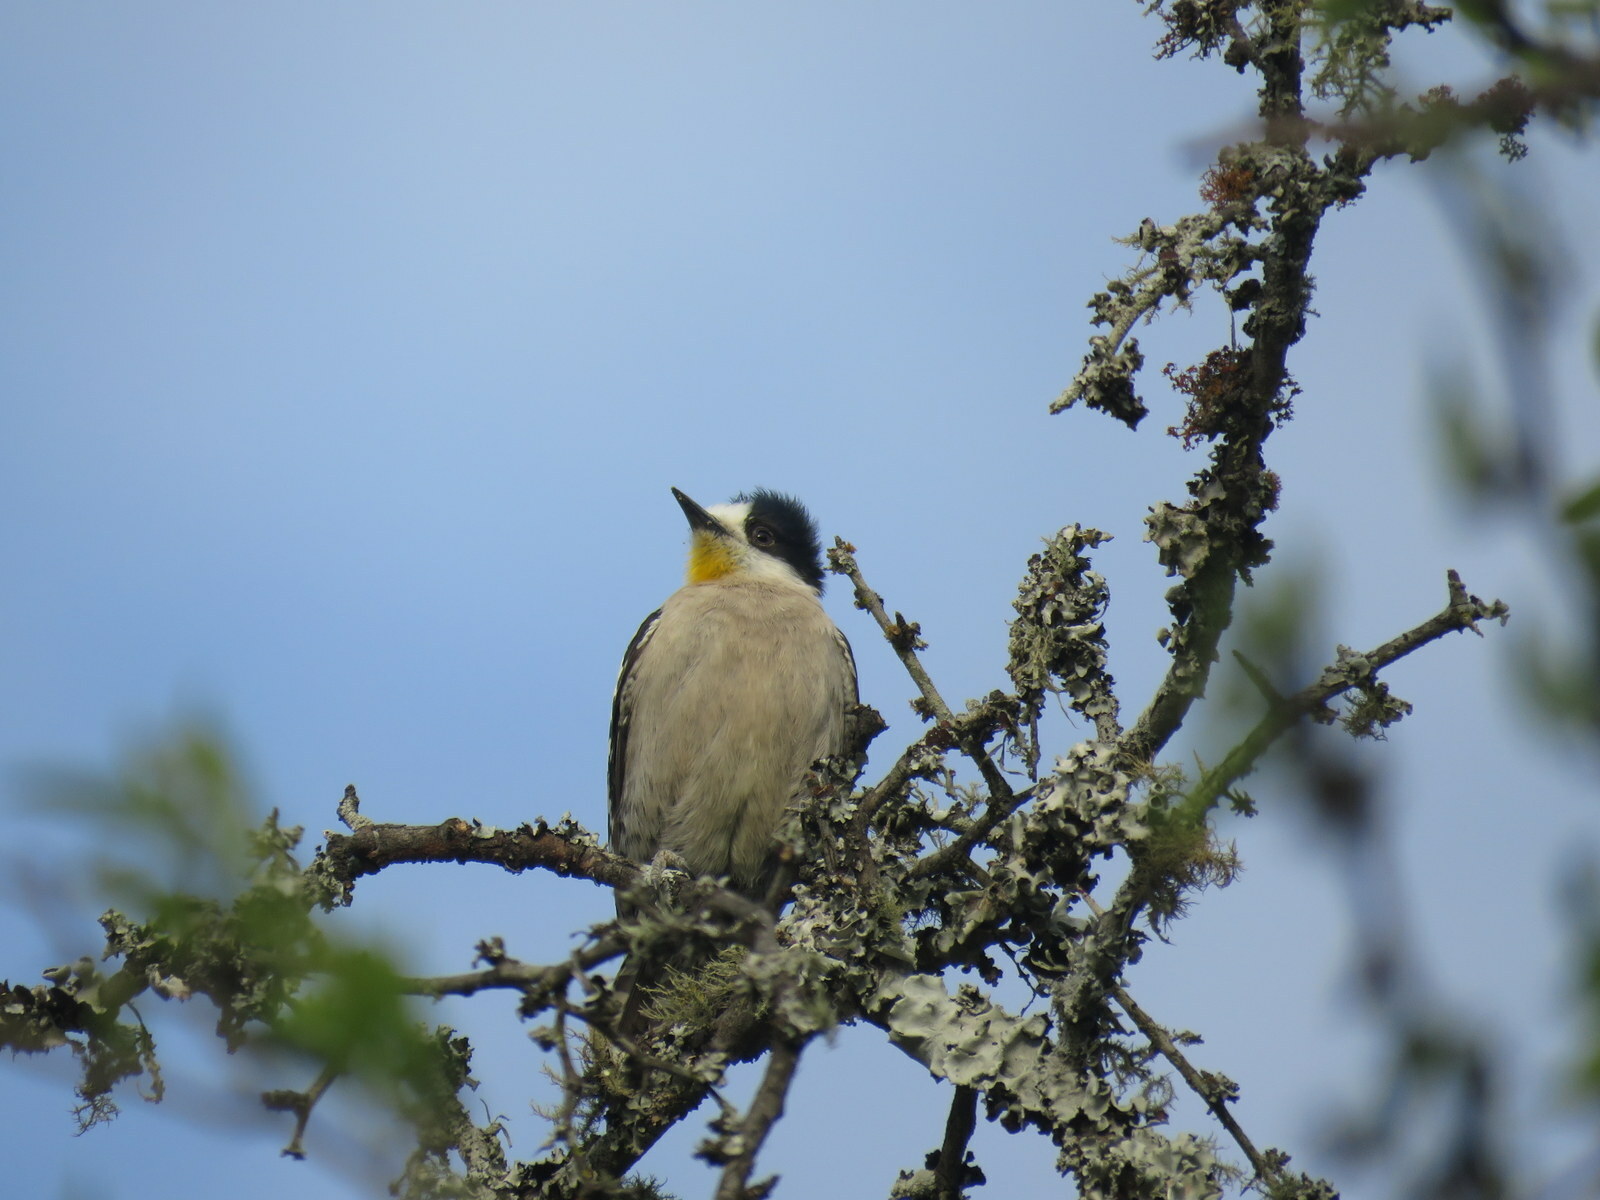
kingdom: Animalia
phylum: Chordata
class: Aves
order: Piciformes
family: Picidae
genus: Melanerpes
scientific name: Melanerpes cactorum
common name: White-fronted woodpecker
